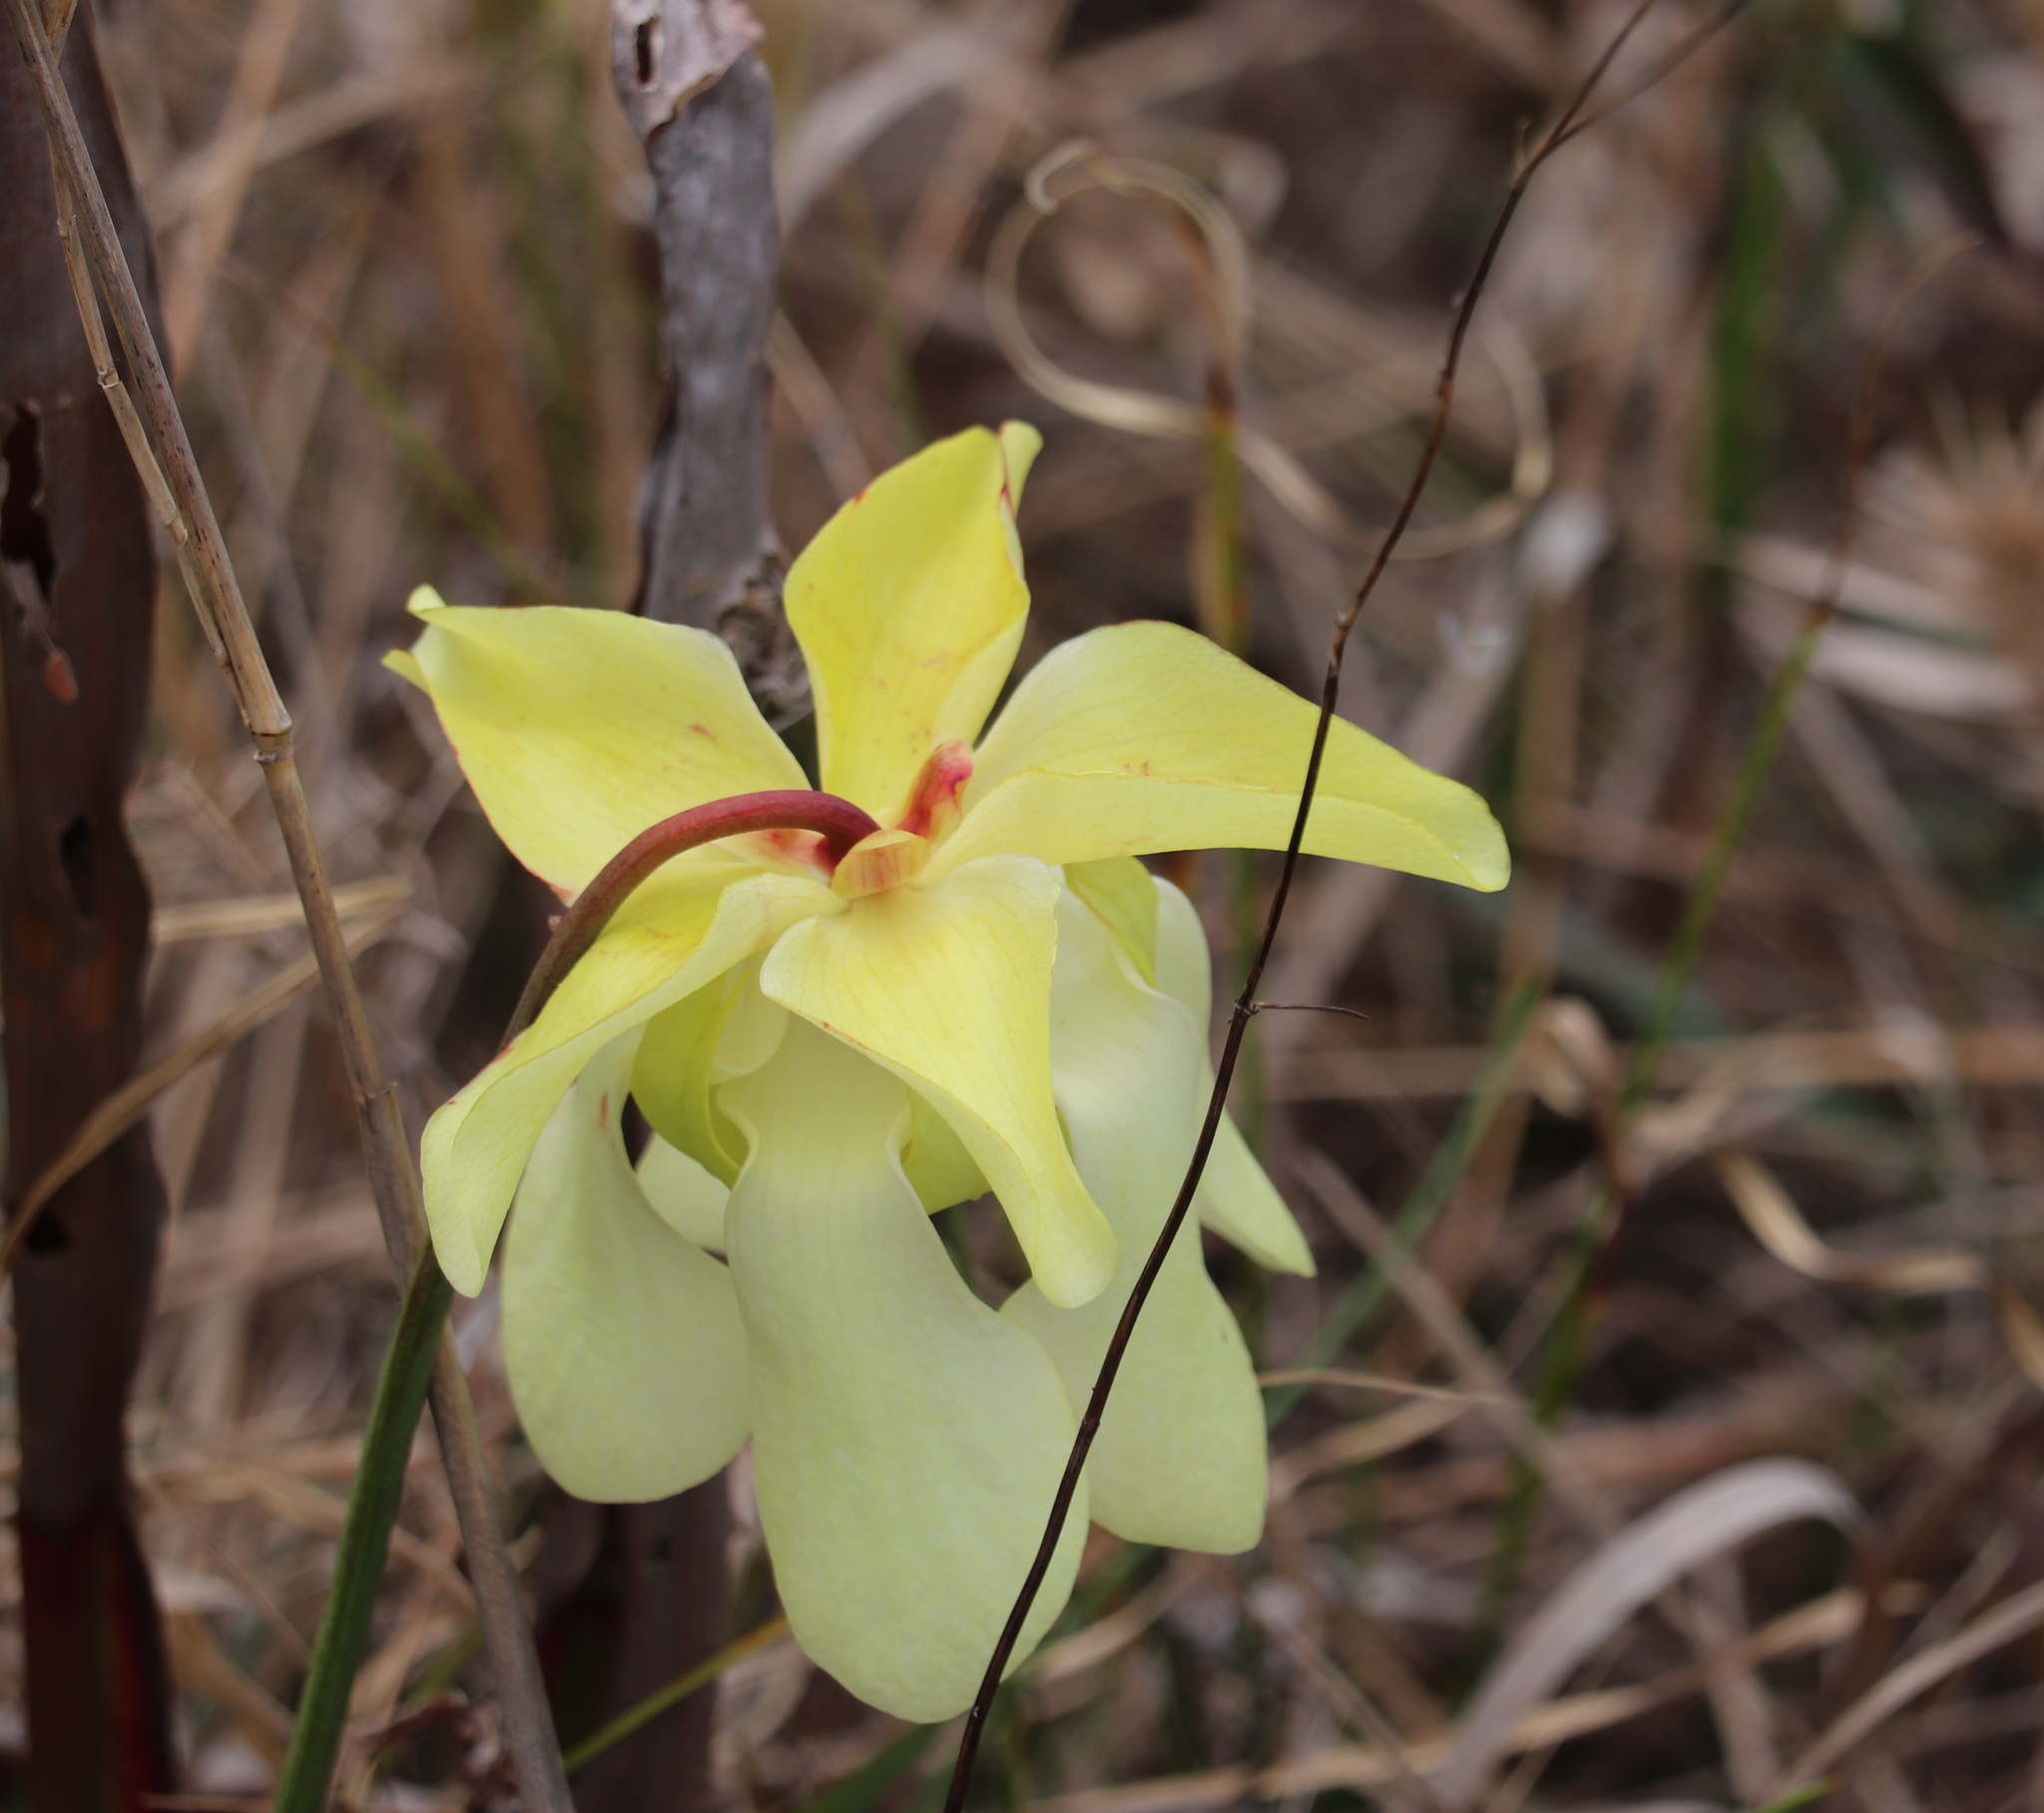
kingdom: Plantae
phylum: Tracheophyta
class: Magnoliopsida
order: Ericales
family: Sarraceniaceae
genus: Sarracenia
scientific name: Sarracenia alata
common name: Yellow trumpets
